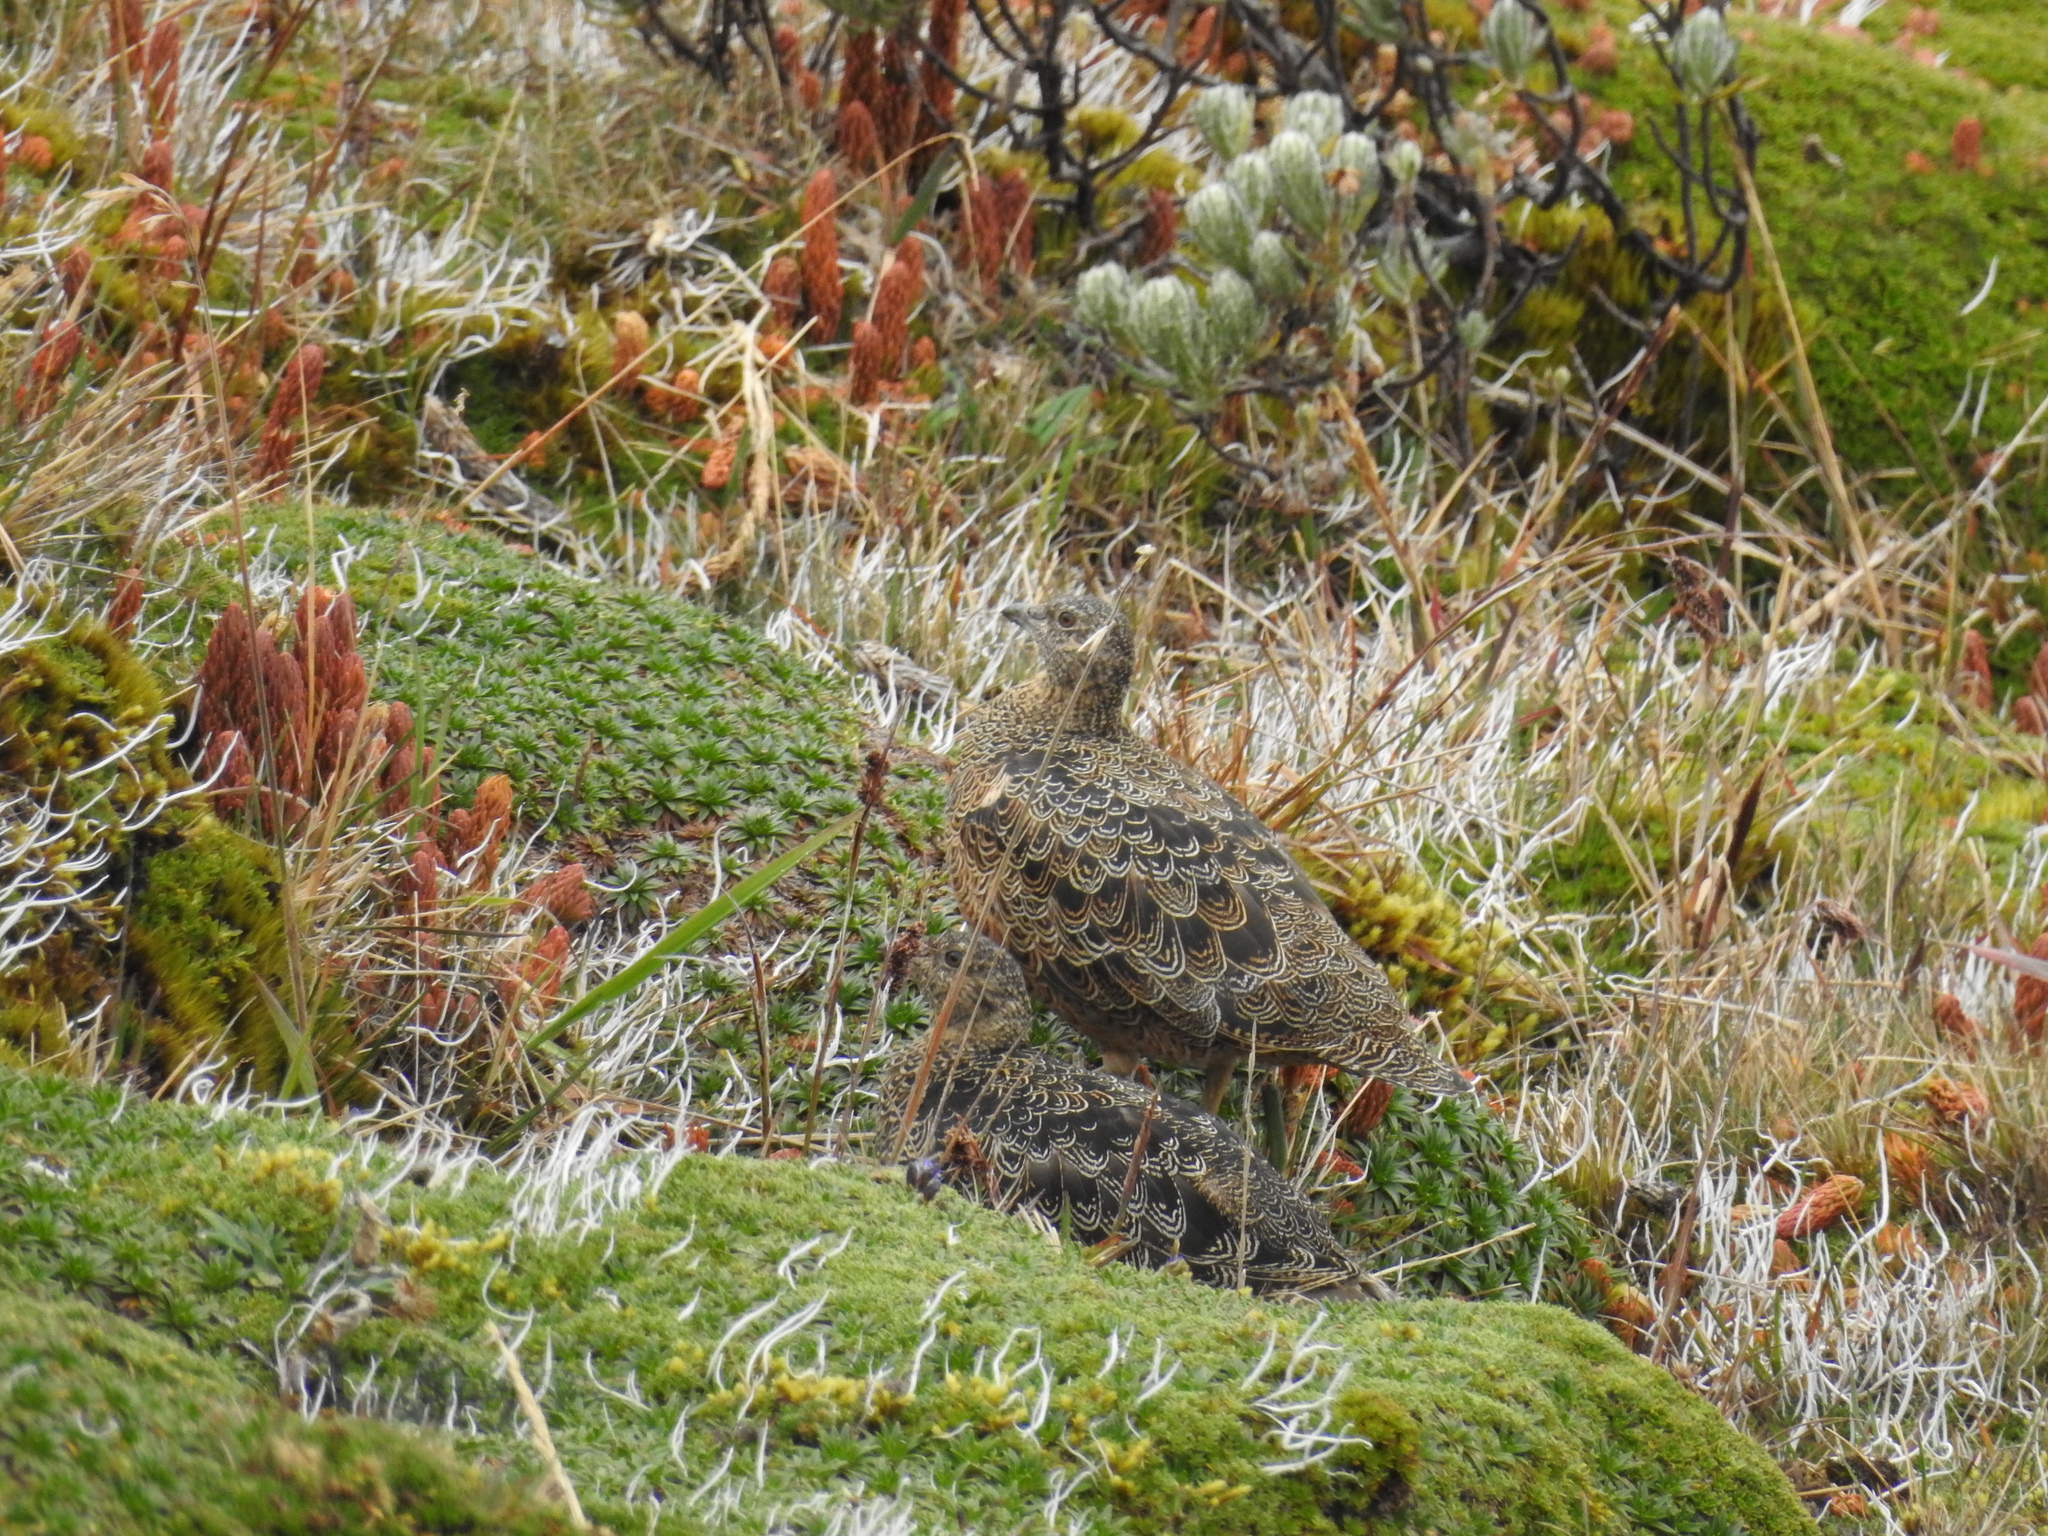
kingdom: Animalia
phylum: Chordata
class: Aves
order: Charadriiformes
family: Thinocoridae
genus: Attagis
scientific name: Attagis gayi
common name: Rufous-bellied seedsnipe
